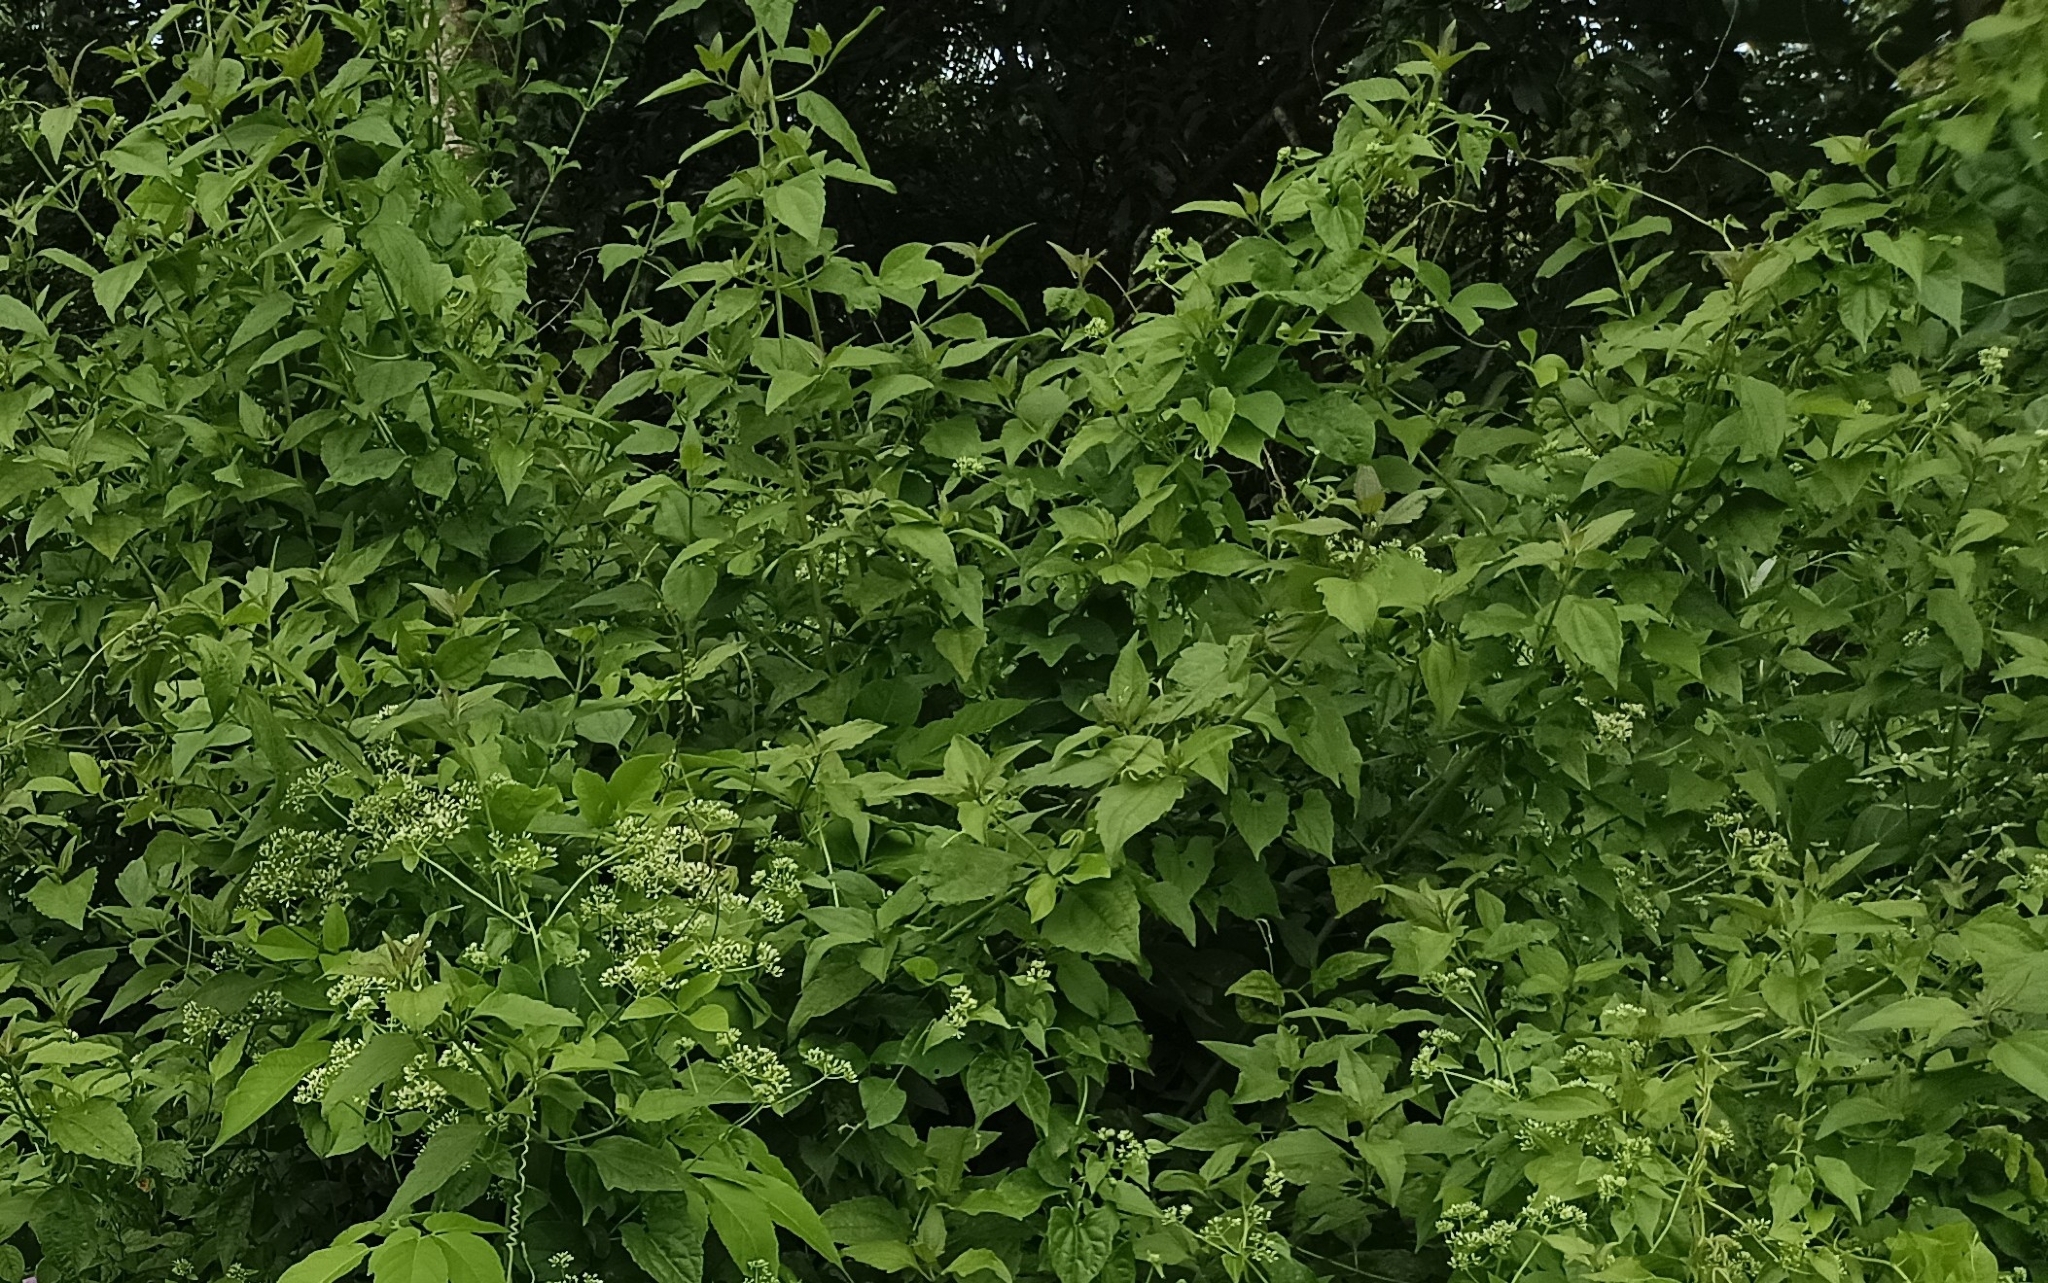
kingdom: Plantae
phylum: Tracheophyta
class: Magnoliopsida
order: Asterales
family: Asteraceae
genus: Chromolaena
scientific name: Chromolaena odorata
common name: Siamweed
